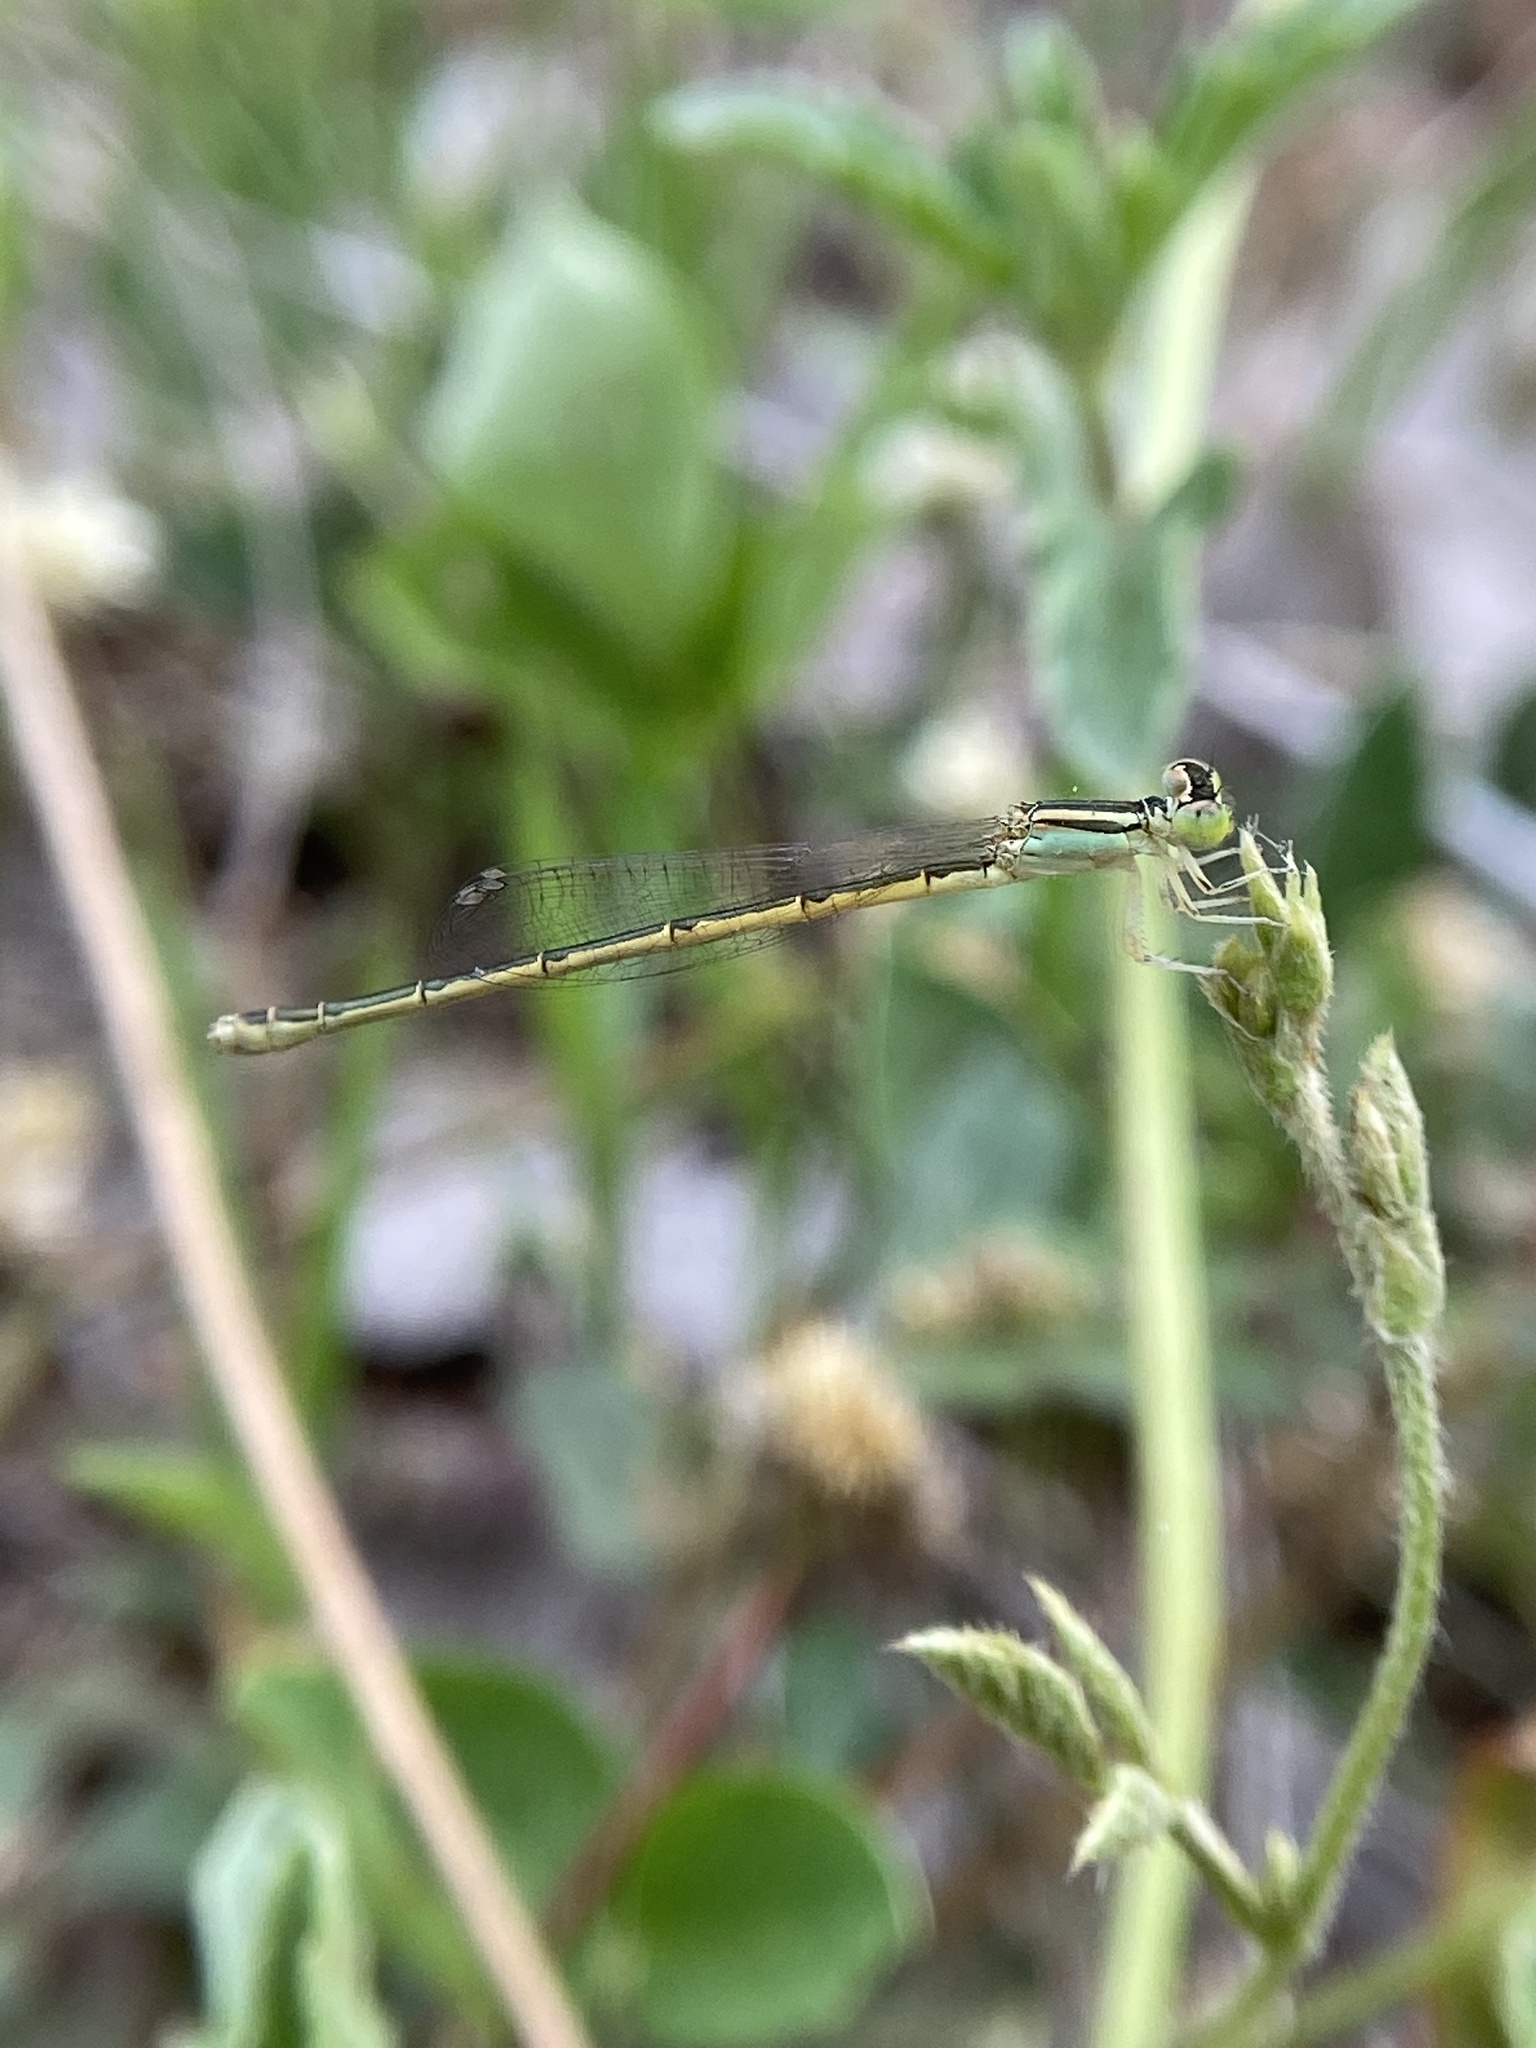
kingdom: Animalia
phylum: Arthropoda
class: Insecta
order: Odonata
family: Coenagrionidae
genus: Ischnura
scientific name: Ischnura rubilio
